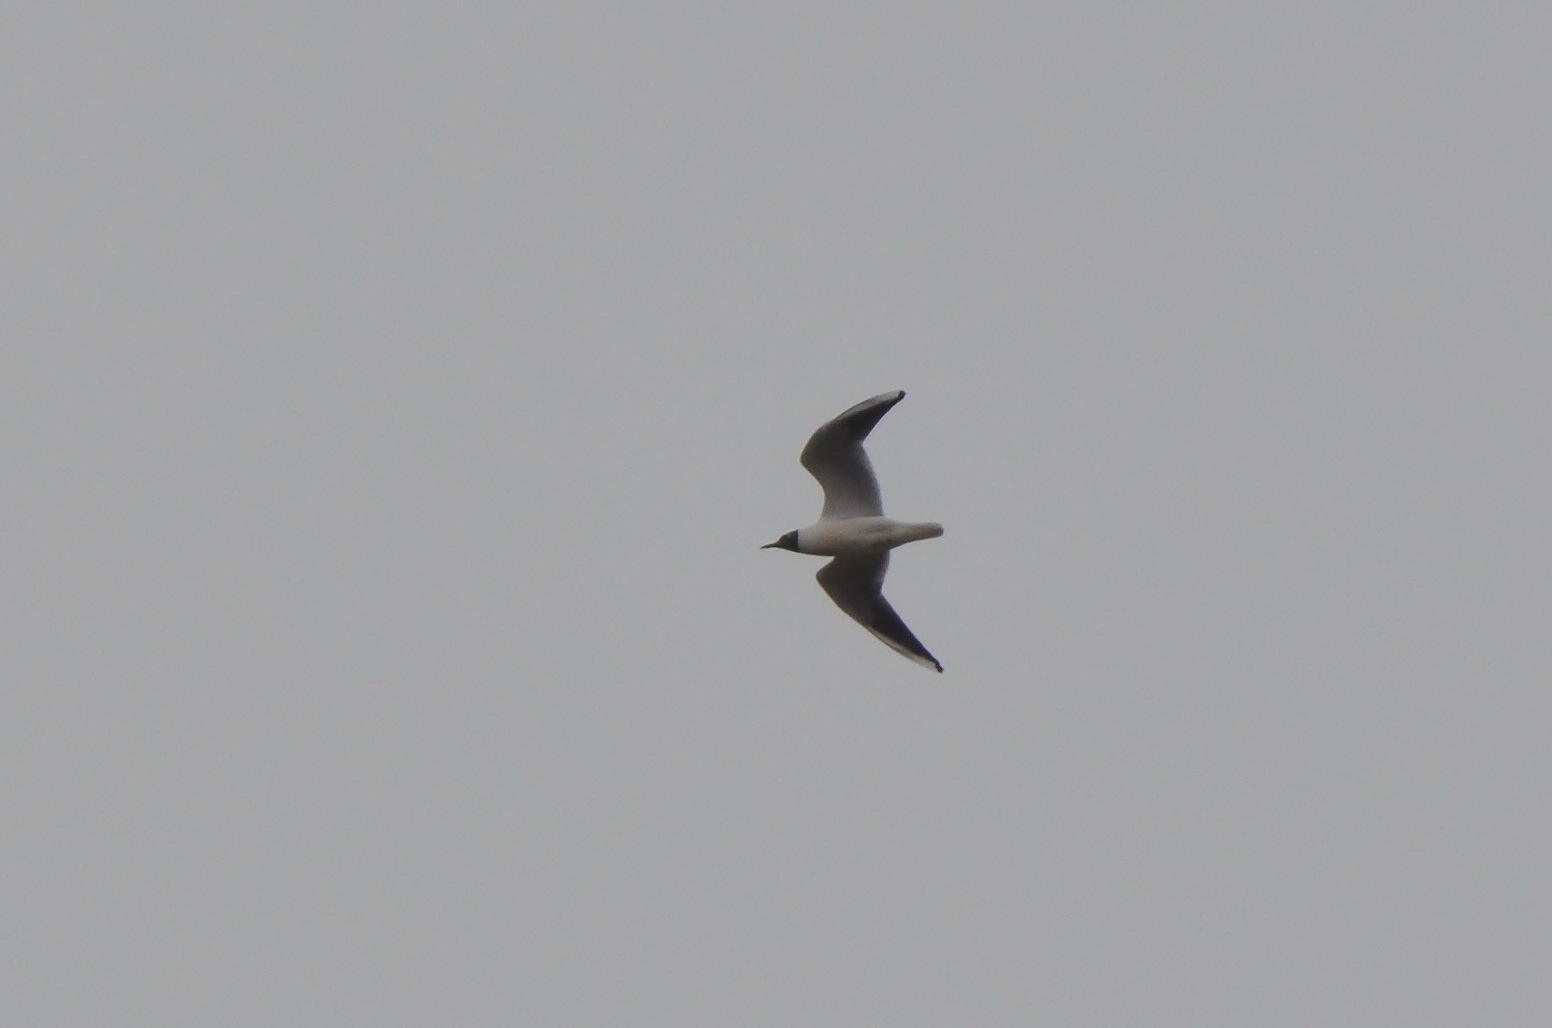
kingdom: Animalia
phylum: Chordata
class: Aves
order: Charadriiformes
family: Laridae
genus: Chroicocephalus
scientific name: Chroicocephalus ridibundus
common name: Black-headed gull
